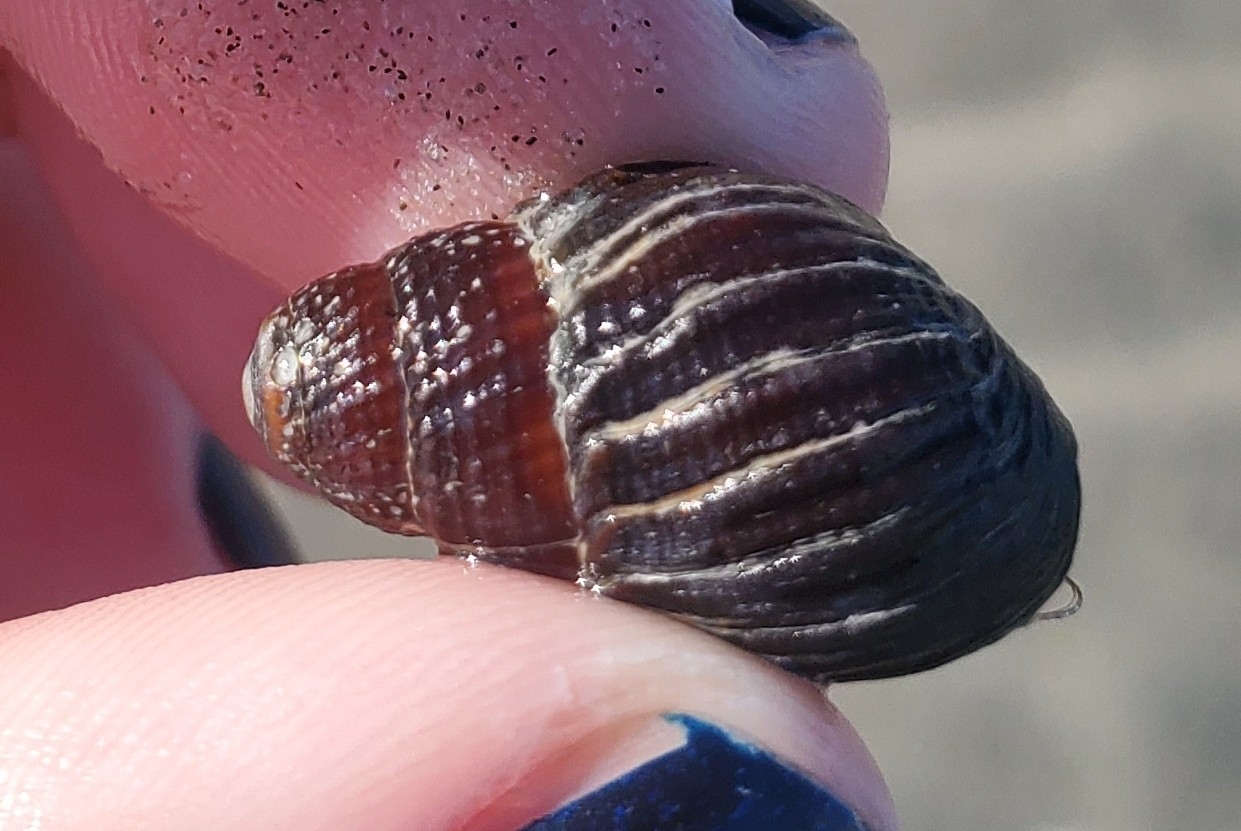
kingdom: Animalia
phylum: Mollusca
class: Gastropoda
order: Neogastropoda
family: Nassariidae
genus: Ilyanassa
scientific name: Ilyanassa obsoleta
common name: Eastern mudsnail
